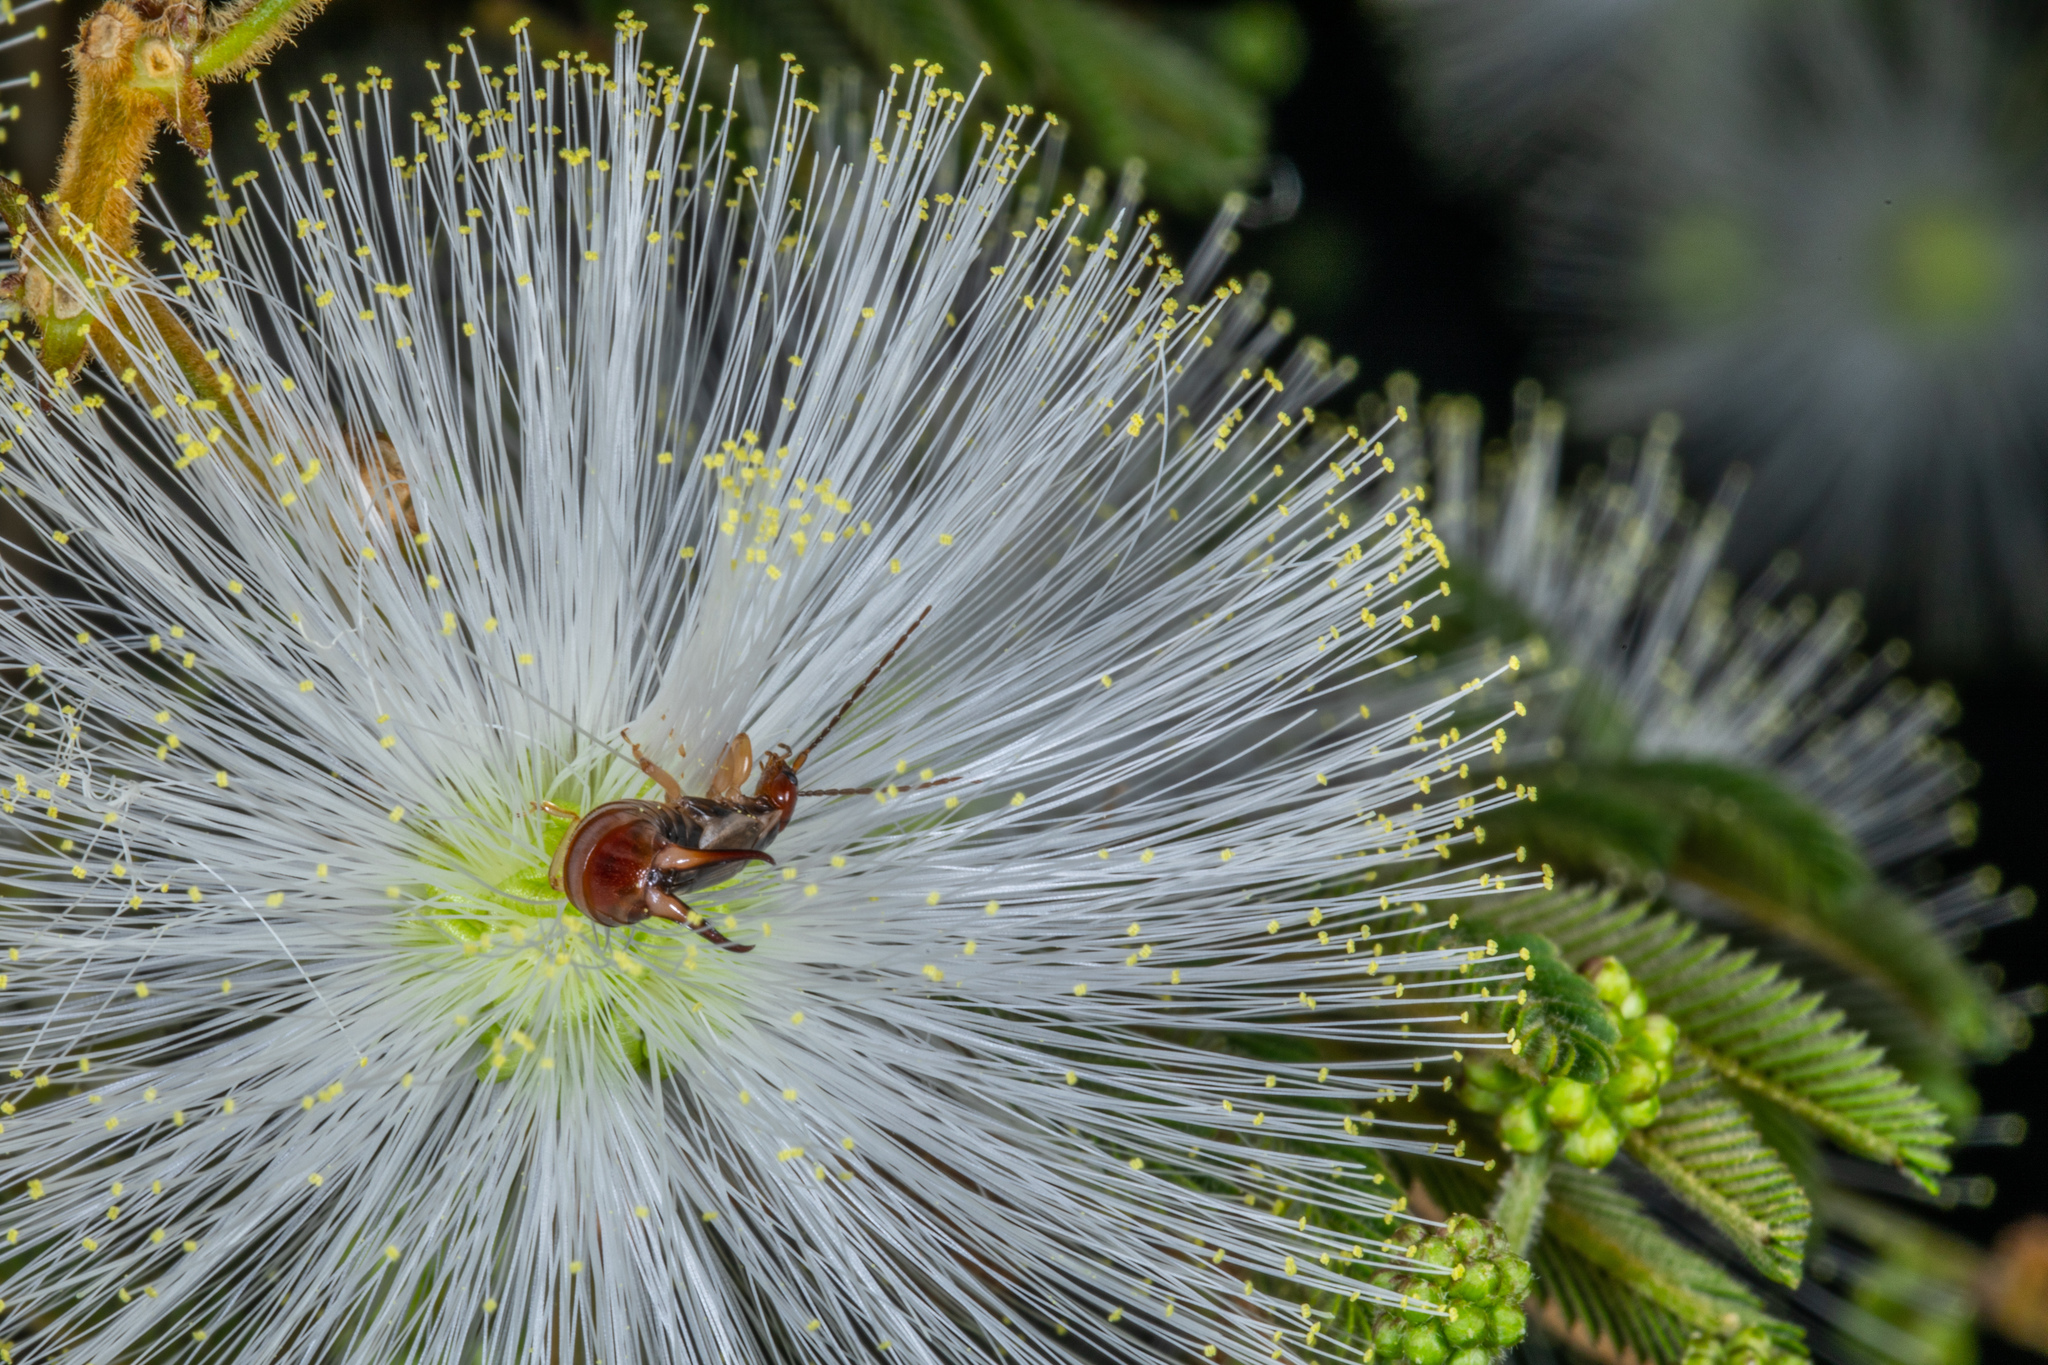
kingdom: Animalia
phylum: Arthropoda
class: Insecta
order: Dermaptera
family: Forficulidae
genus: Forficula
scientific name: Forficula
